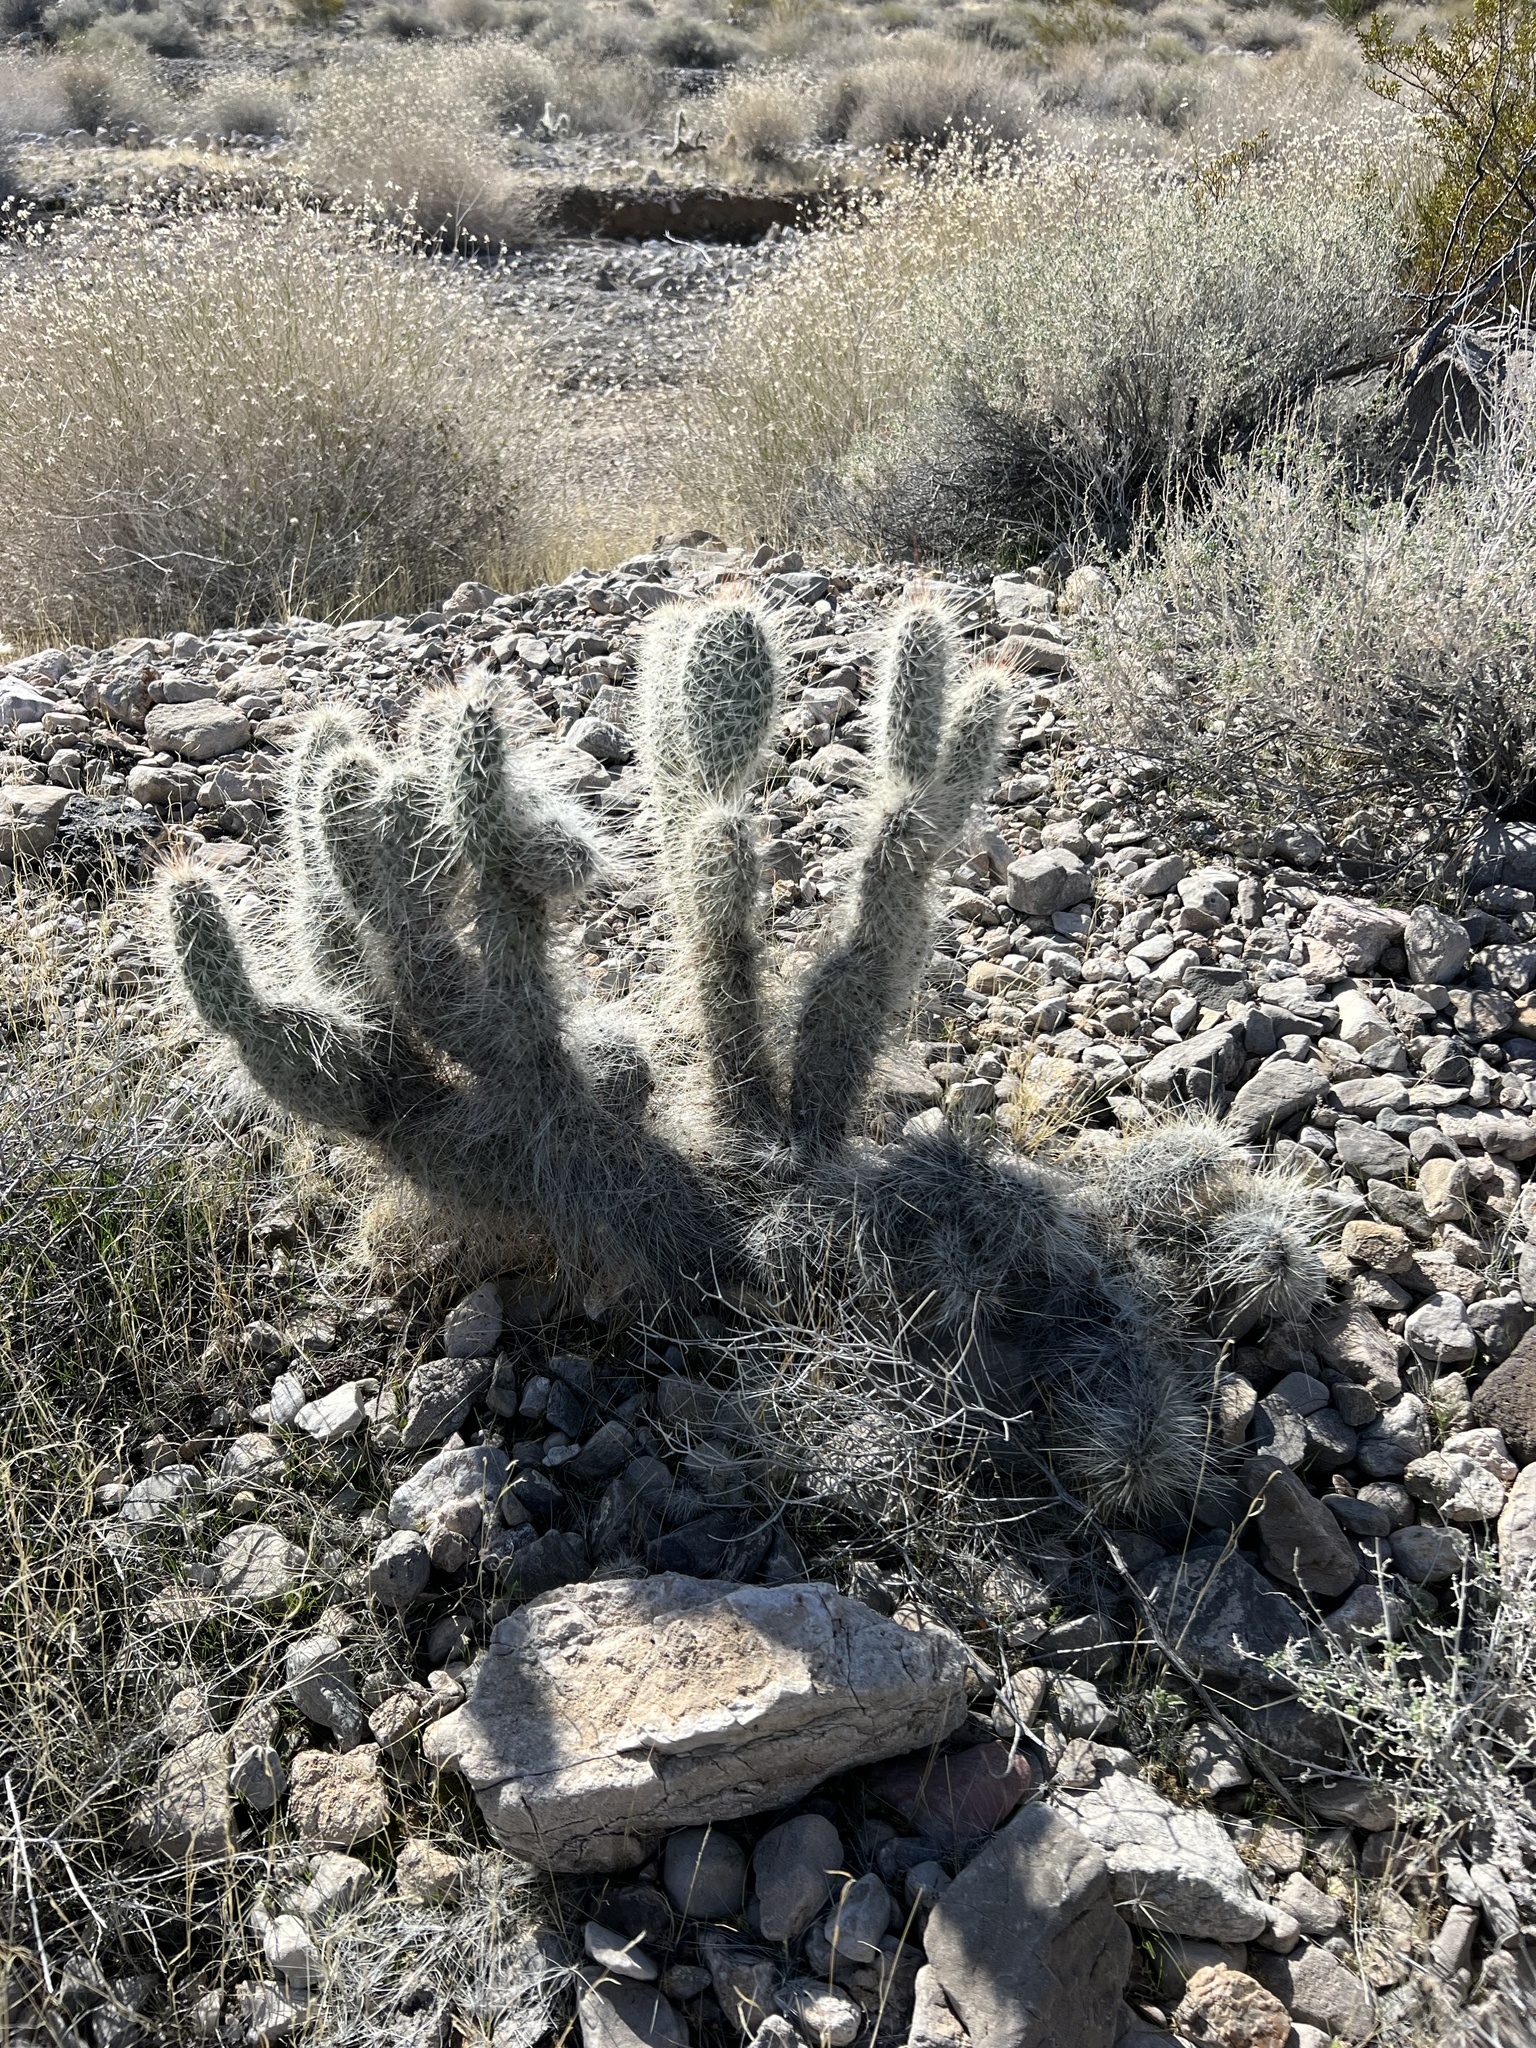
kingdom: Plantae
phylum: Tracheophyta
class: Magnoliopsida
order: Caryophyllales
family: Cactaceae
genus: Opuntia
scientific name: Opuntia polyacantha
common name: Plains prickly-pear
